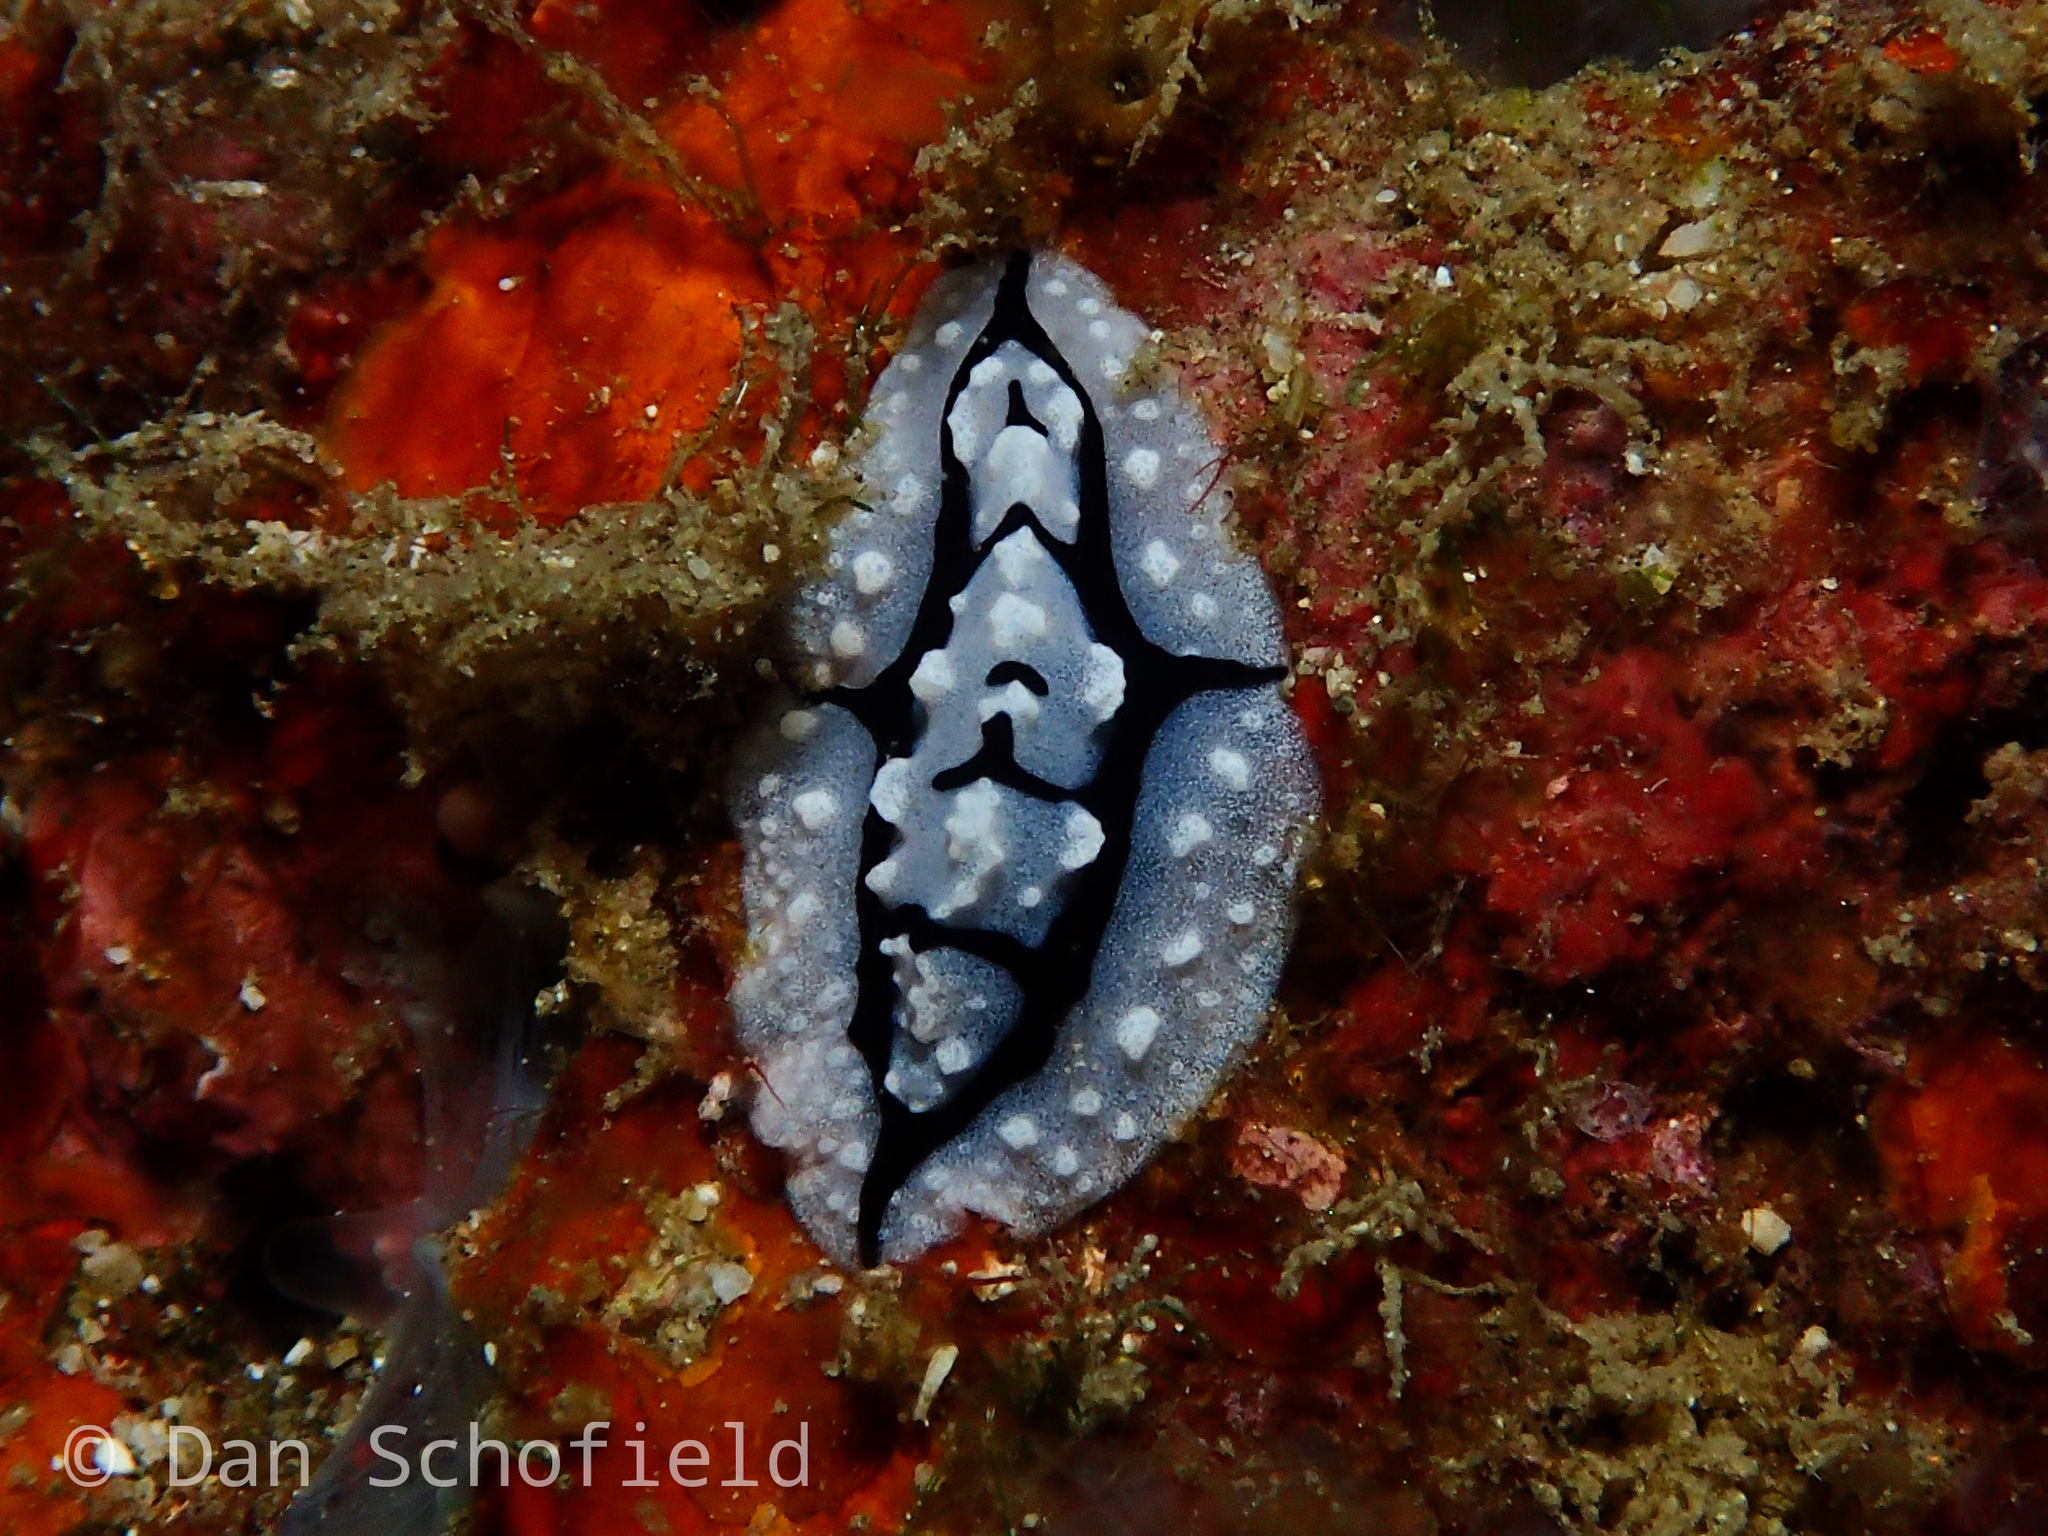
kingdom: Animalia
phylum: Mollusca
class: Gastropoda
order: Nudibranchia
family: Phyllidiidae
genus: Phyllidiopsis
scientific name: Phyllidiopsis shireenae
